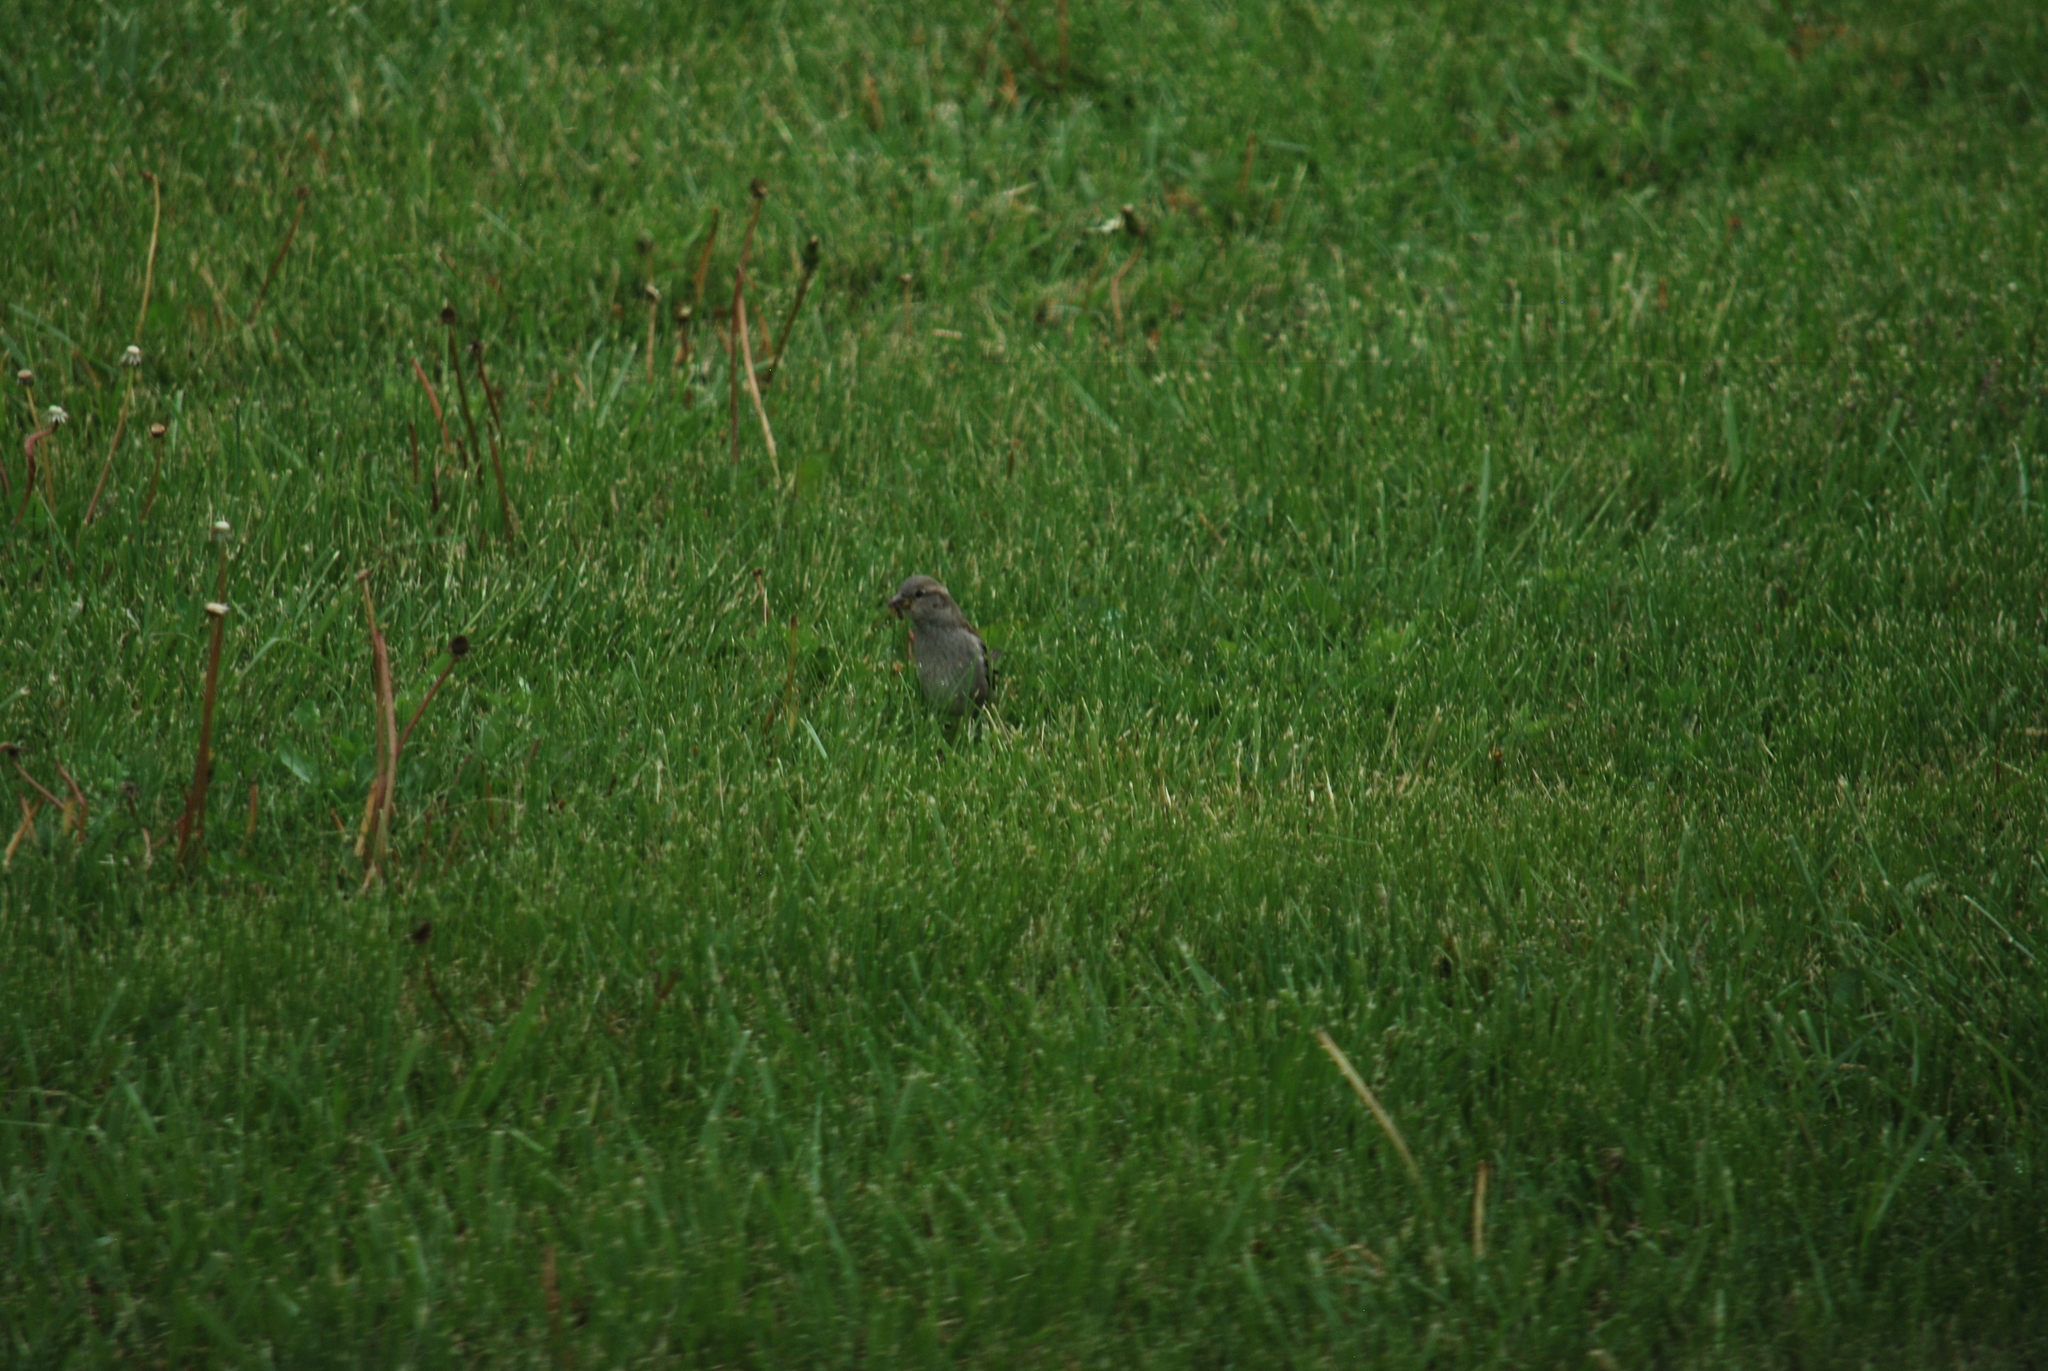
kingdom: Animalia
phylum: Chordata
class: Aves
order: Passeriformes
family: Passeridae
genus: Passer
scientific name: Passer domesticus
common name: House sparrow
